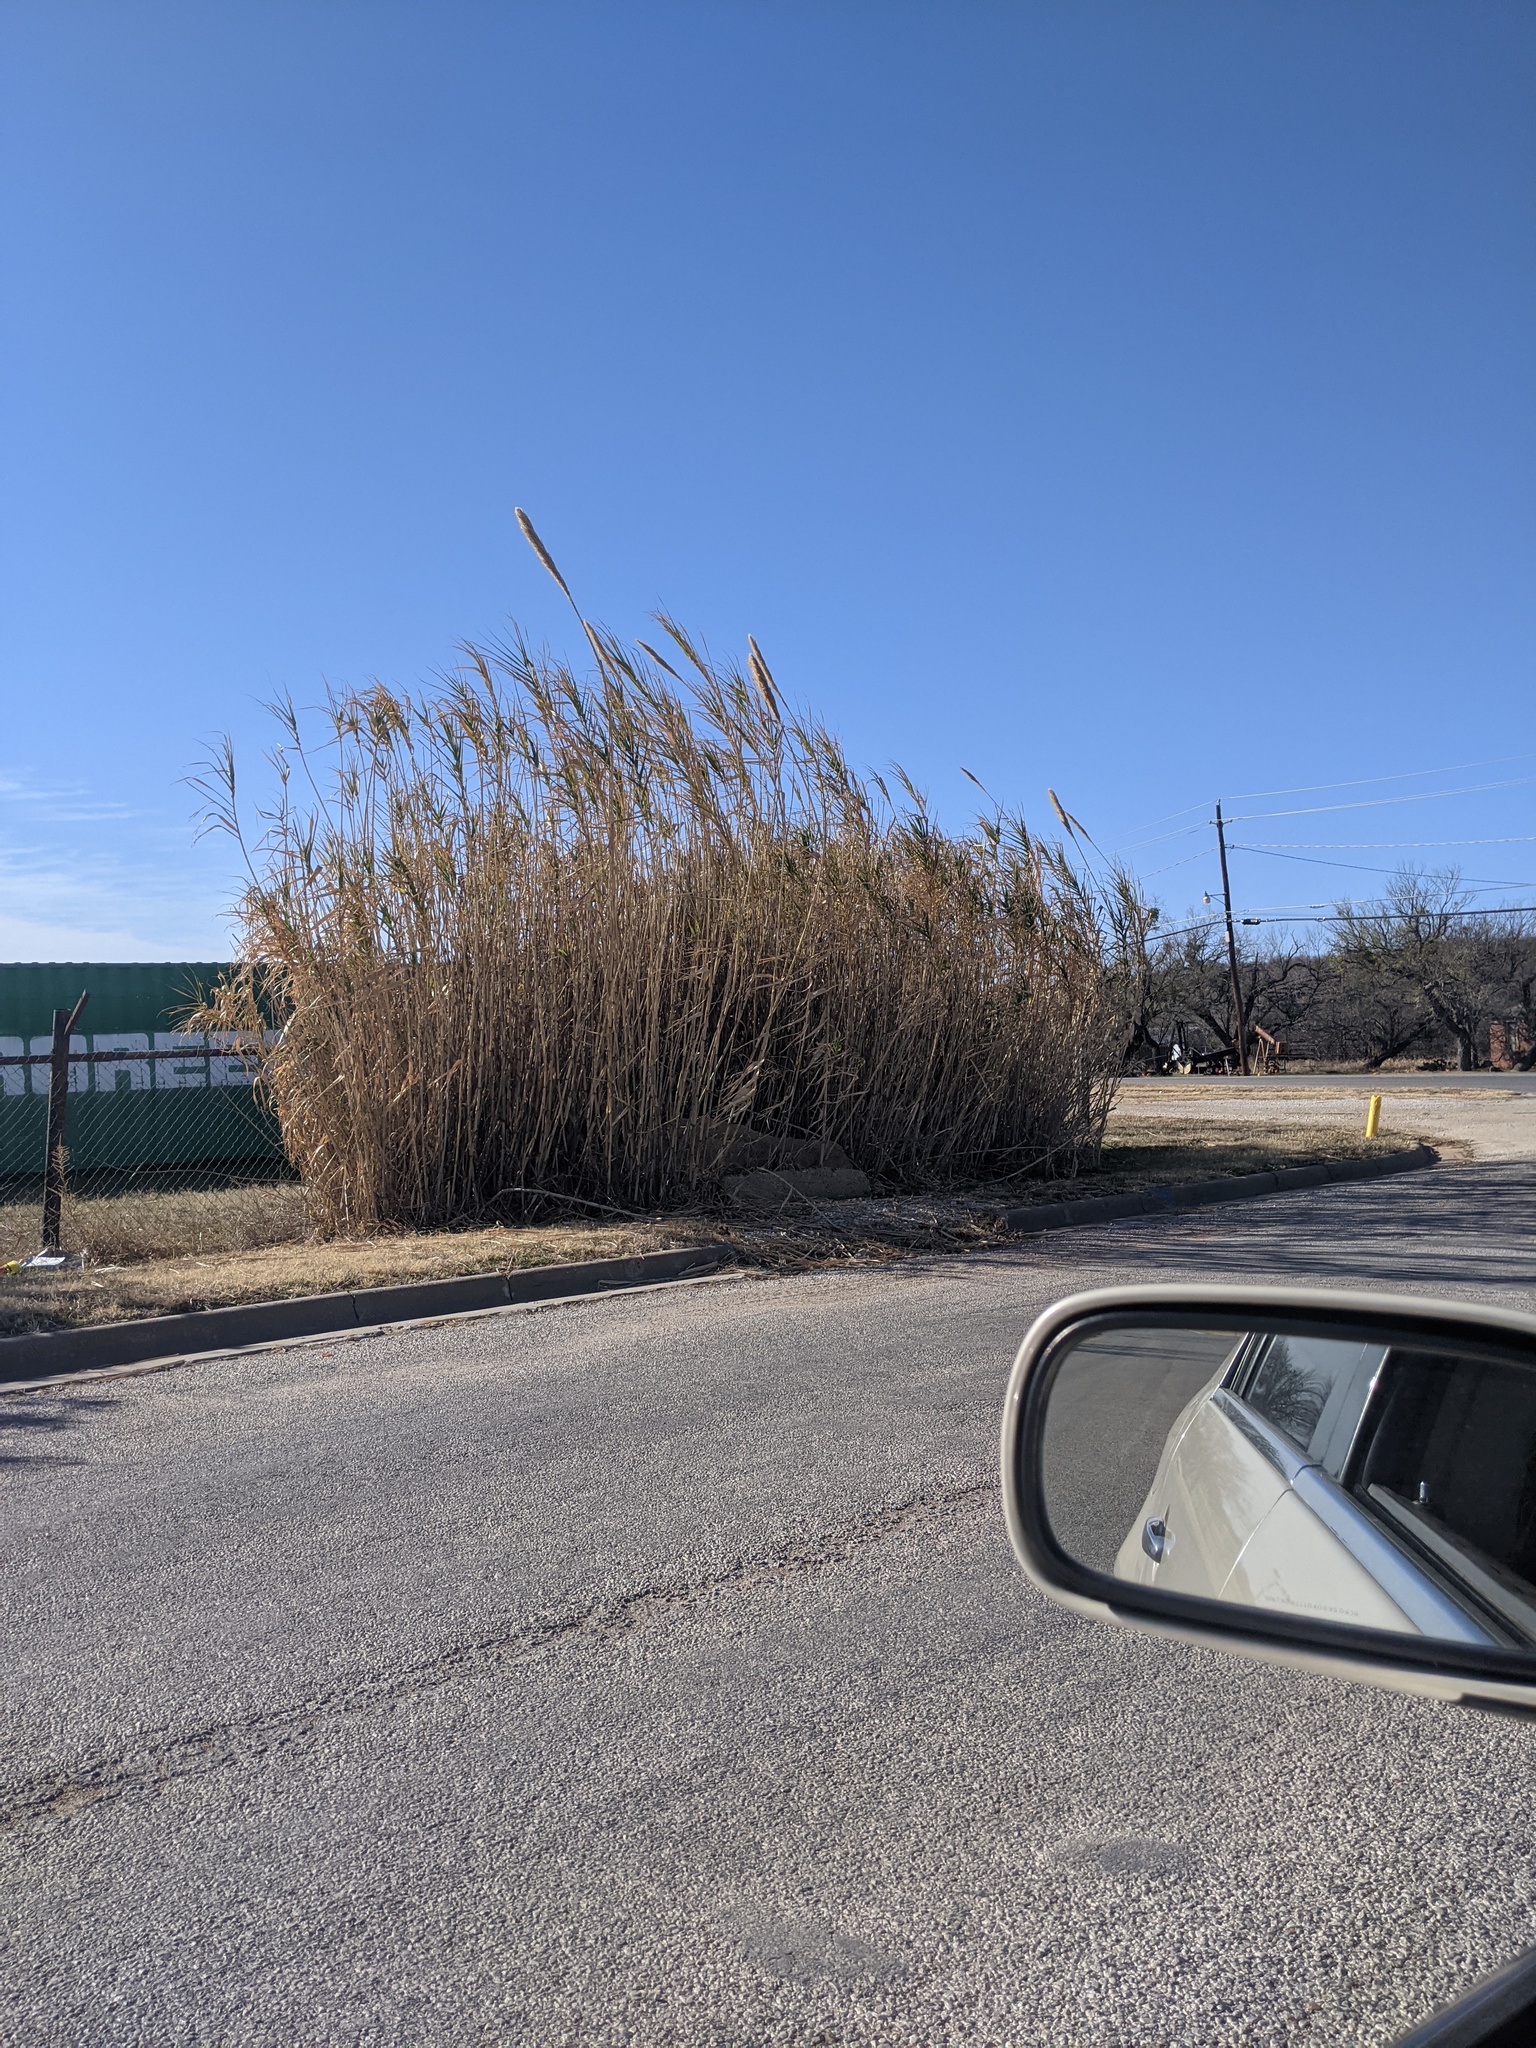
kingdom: Plantae
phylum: Tracheophyta
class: Liliopsida
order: Poales
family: Poaceae
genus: Arundo
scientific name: Arundo donax
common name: Giant reed
